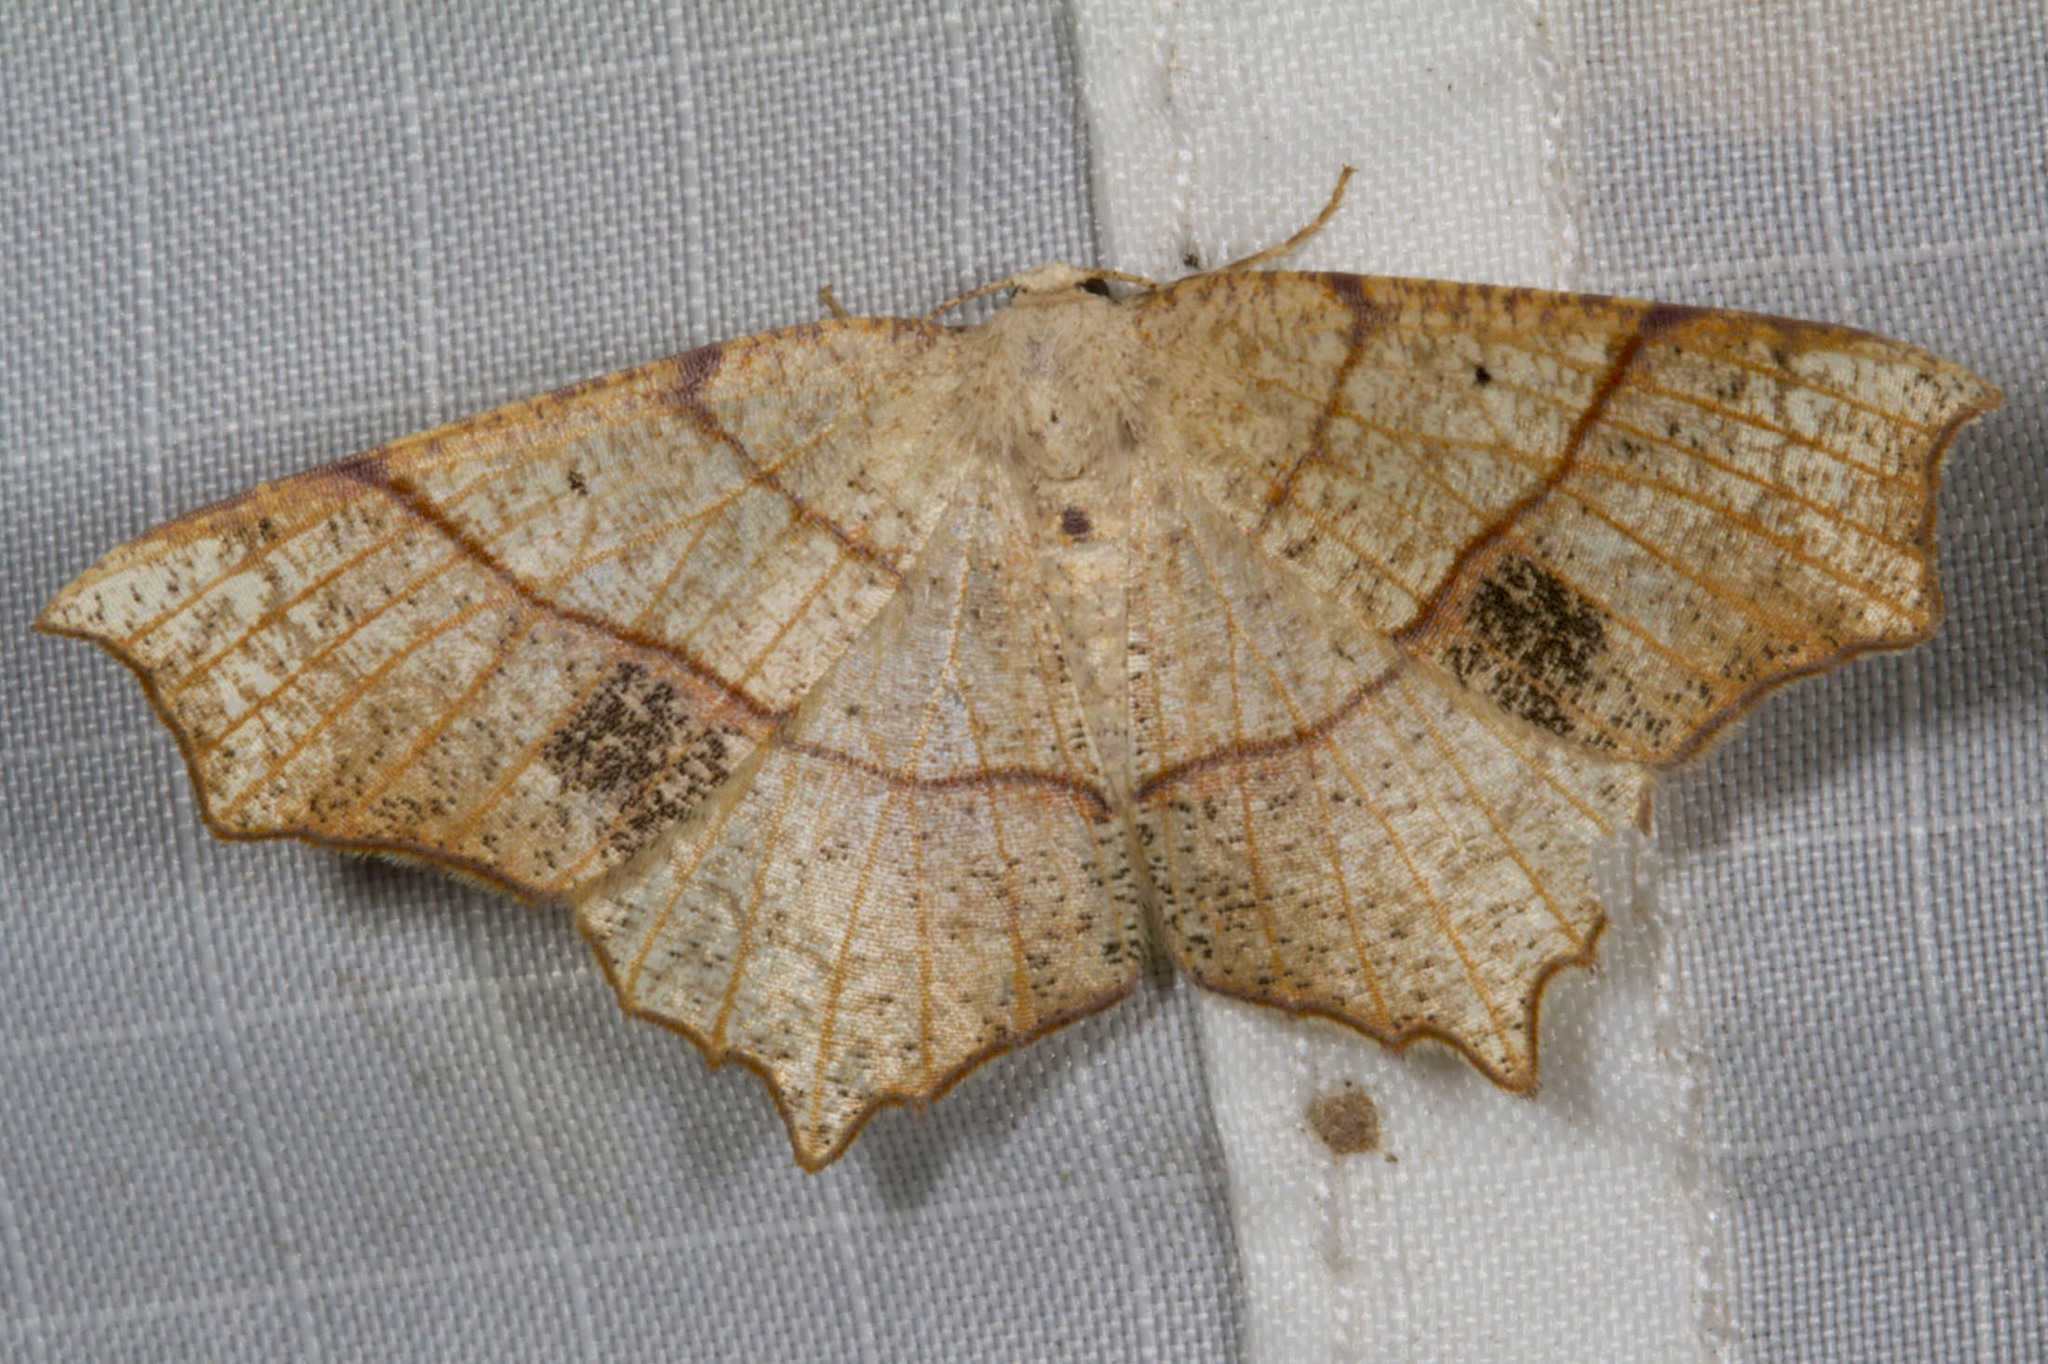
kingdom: Animalia
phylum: Arthropoda
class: Insecta
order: Lepidoptera
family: Geometridae
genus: Besma
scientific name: Besma quercivoraria
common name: Oak besma
